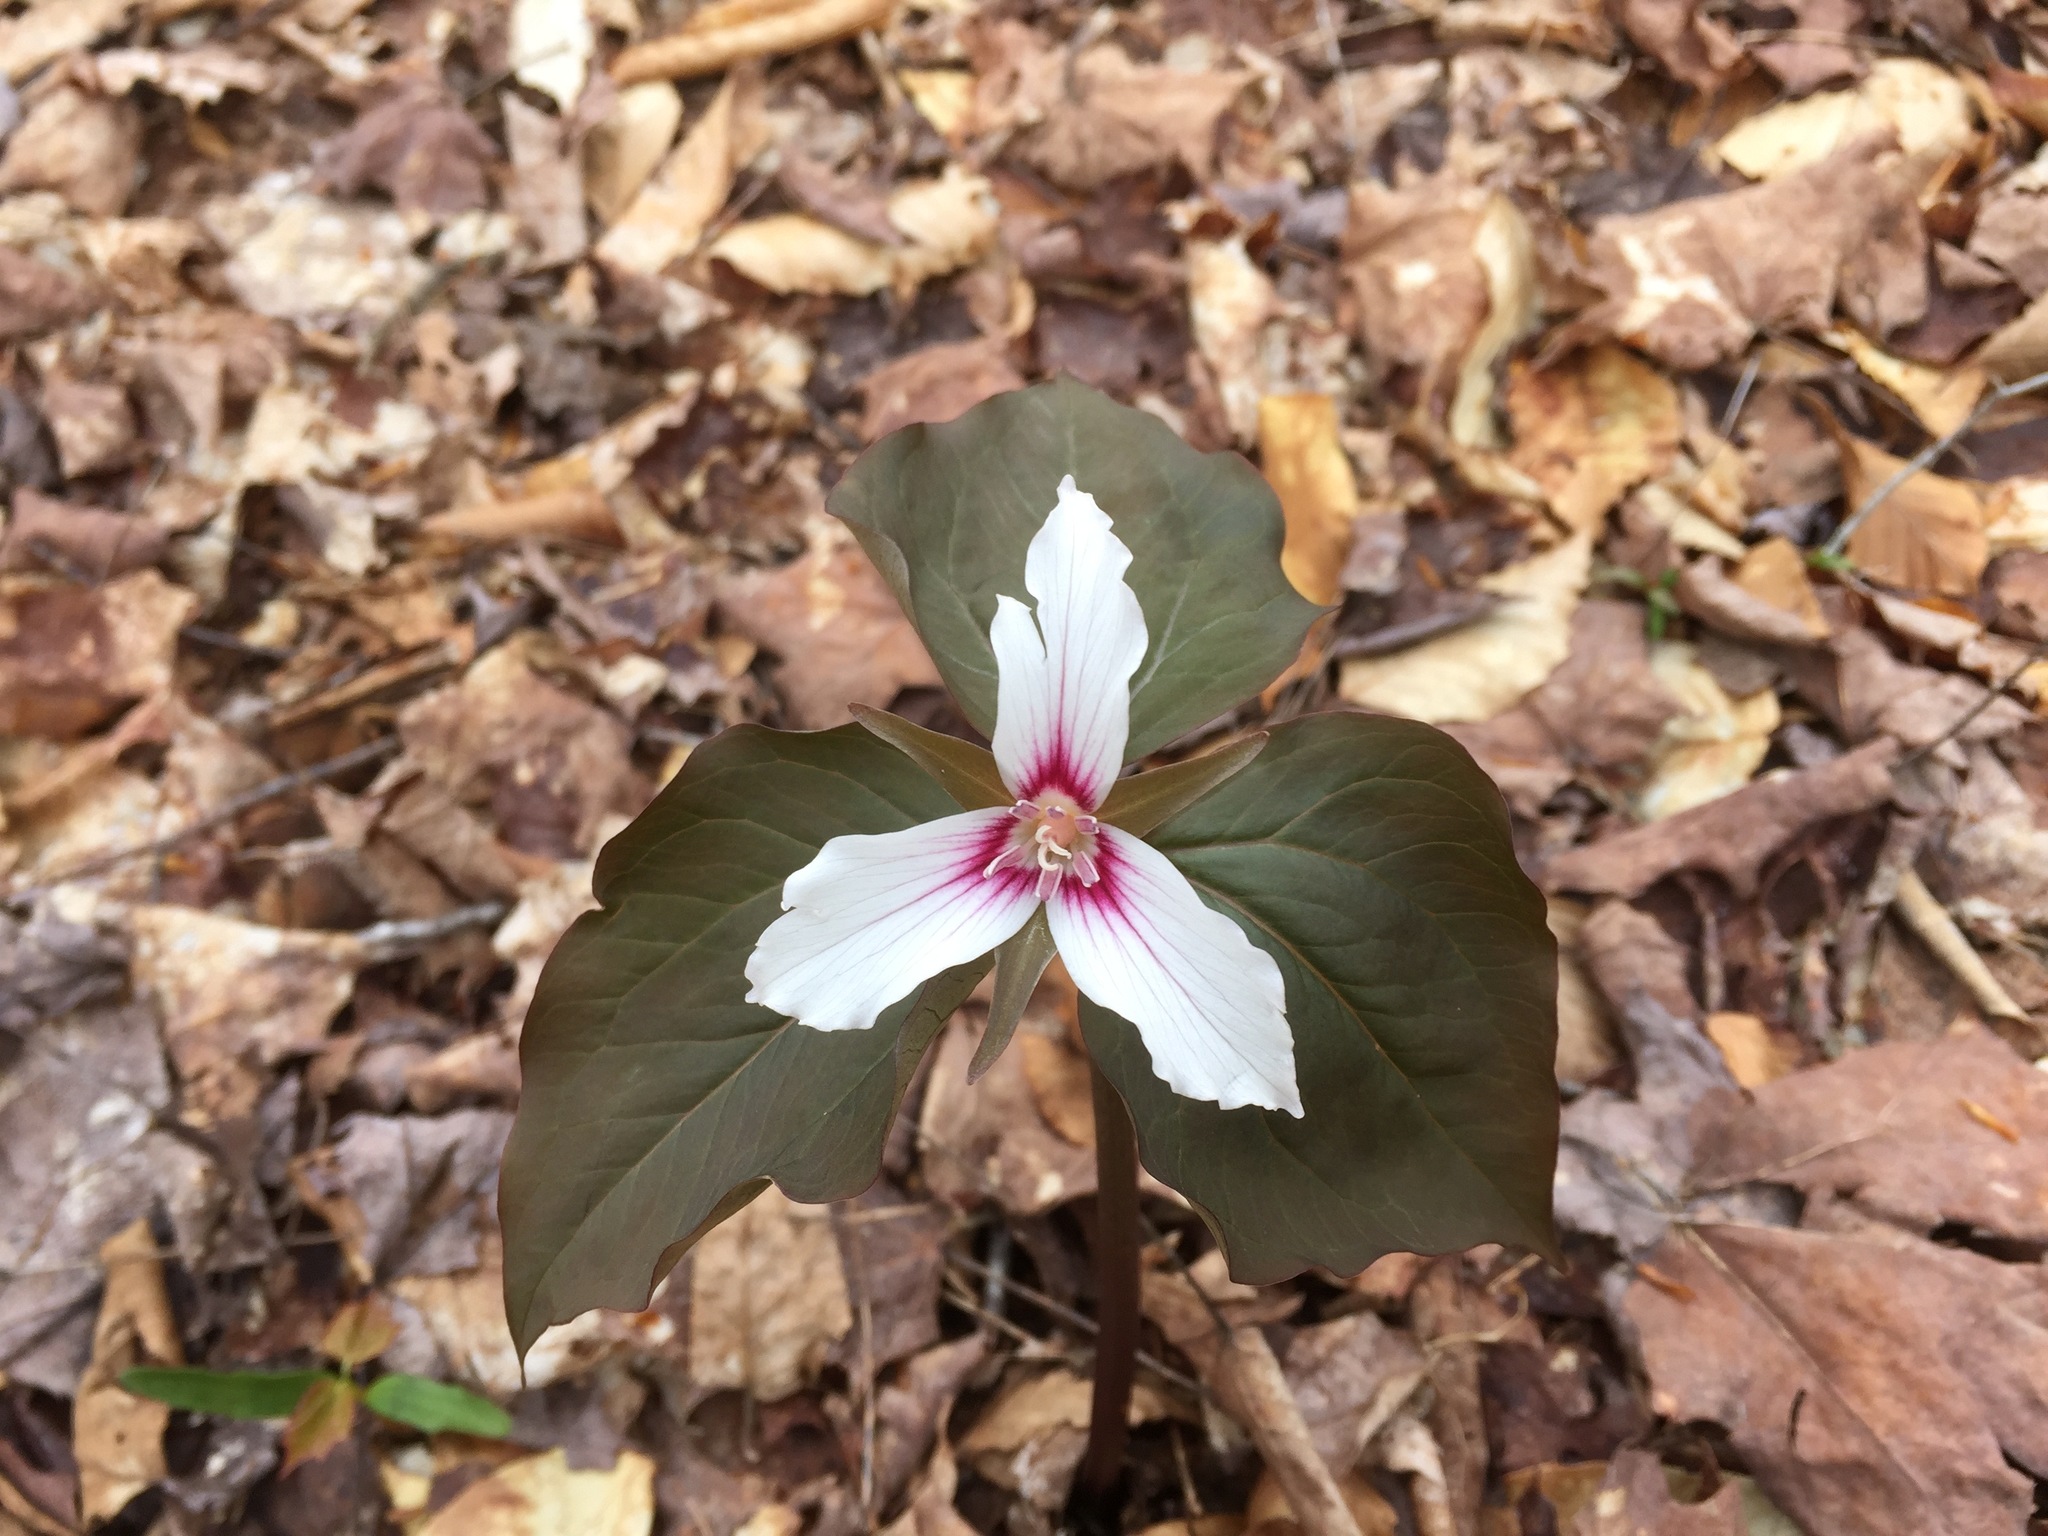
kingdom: Plantae
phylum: Tracheophyta
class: Liliopsida
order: Liliales
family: Melanthiaceae
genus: Trillium
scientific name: Trillium undulatum
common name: Paint trillium
